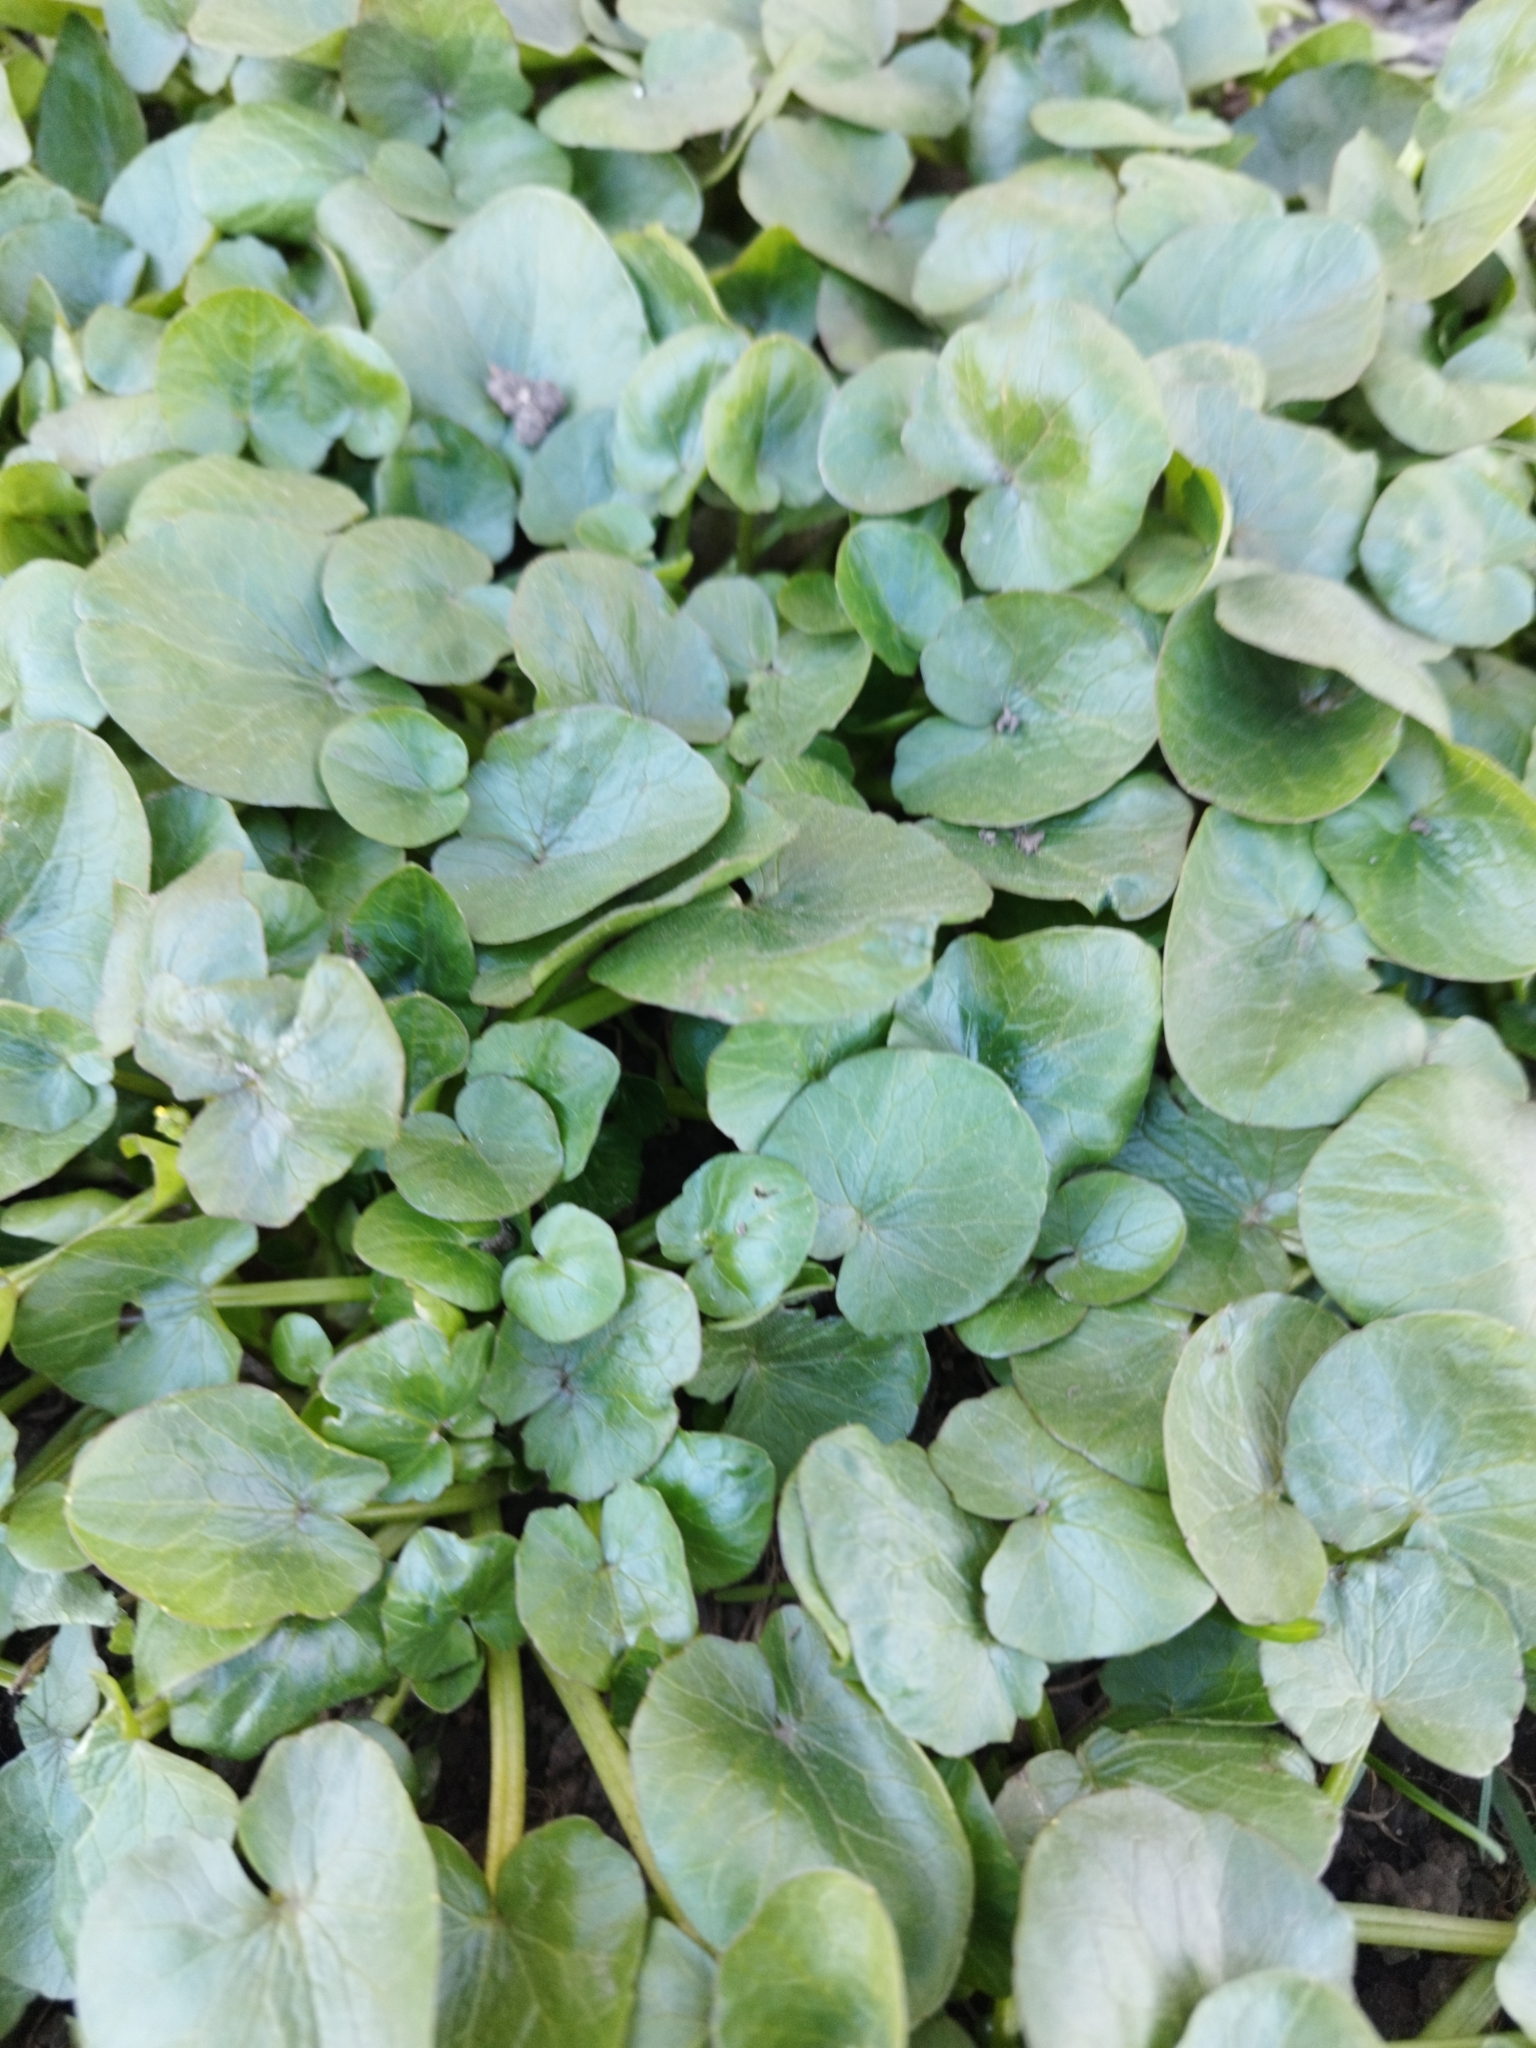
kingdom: Plantae
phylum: Tracheophyta
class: Magnoliopsida
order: Ranunculales
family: Ranunculaceae
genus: Ficaria
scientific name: Ficaria verna
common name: Lesser celandine
